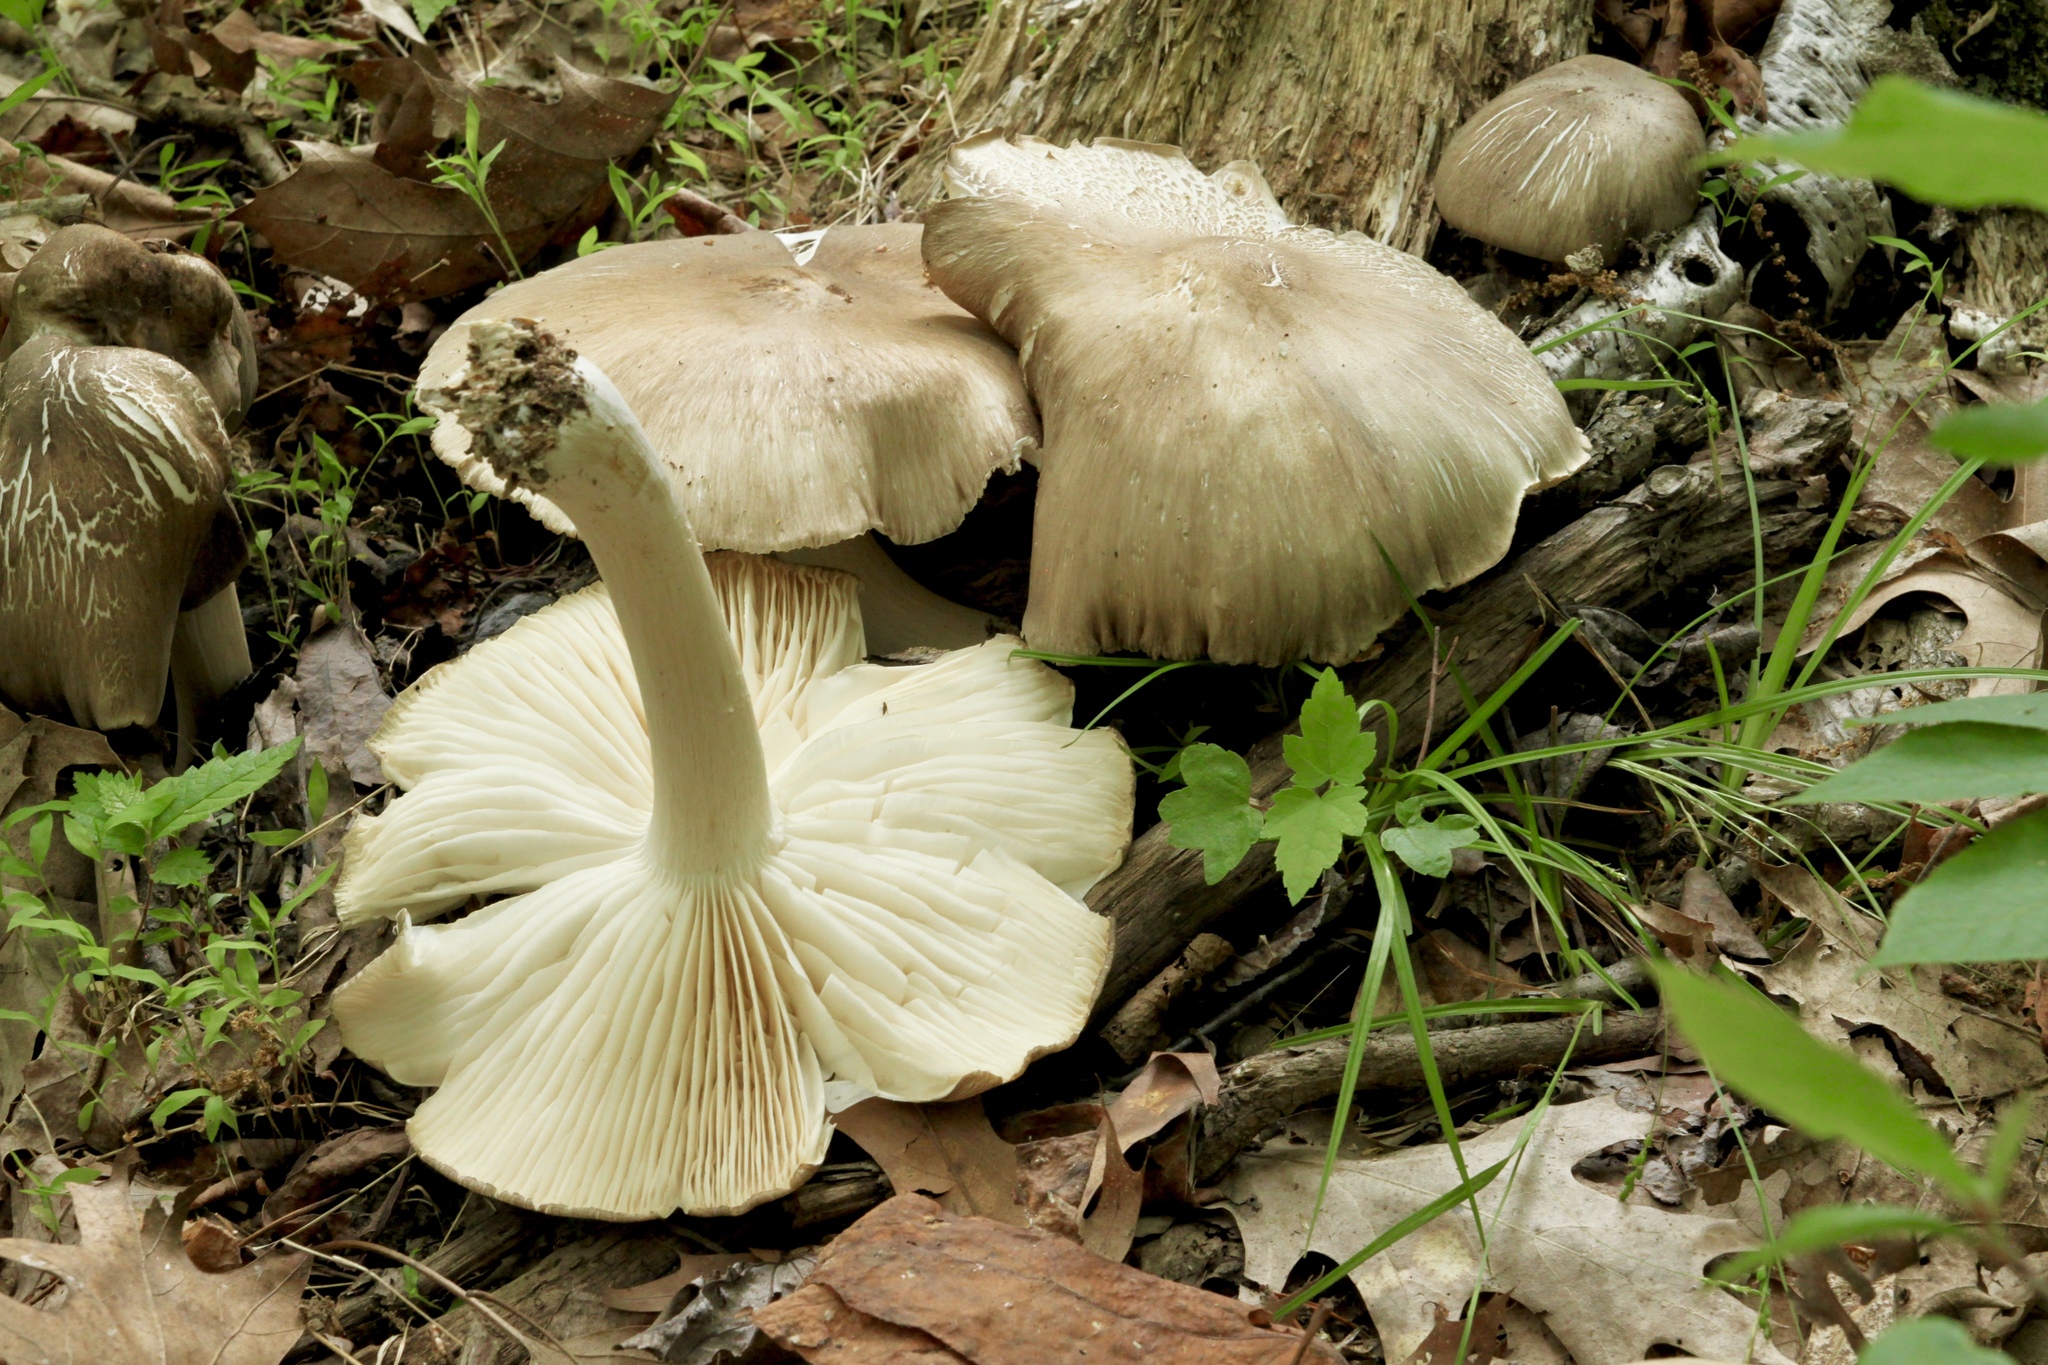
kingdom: Fungi
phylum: Basidiomycota
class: Agaricomycetes
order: Agaricales
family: Tricholomataceae
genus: Megacollybia
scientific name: Megacollybia rodmanii
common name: Eastern american platterful mushroom
